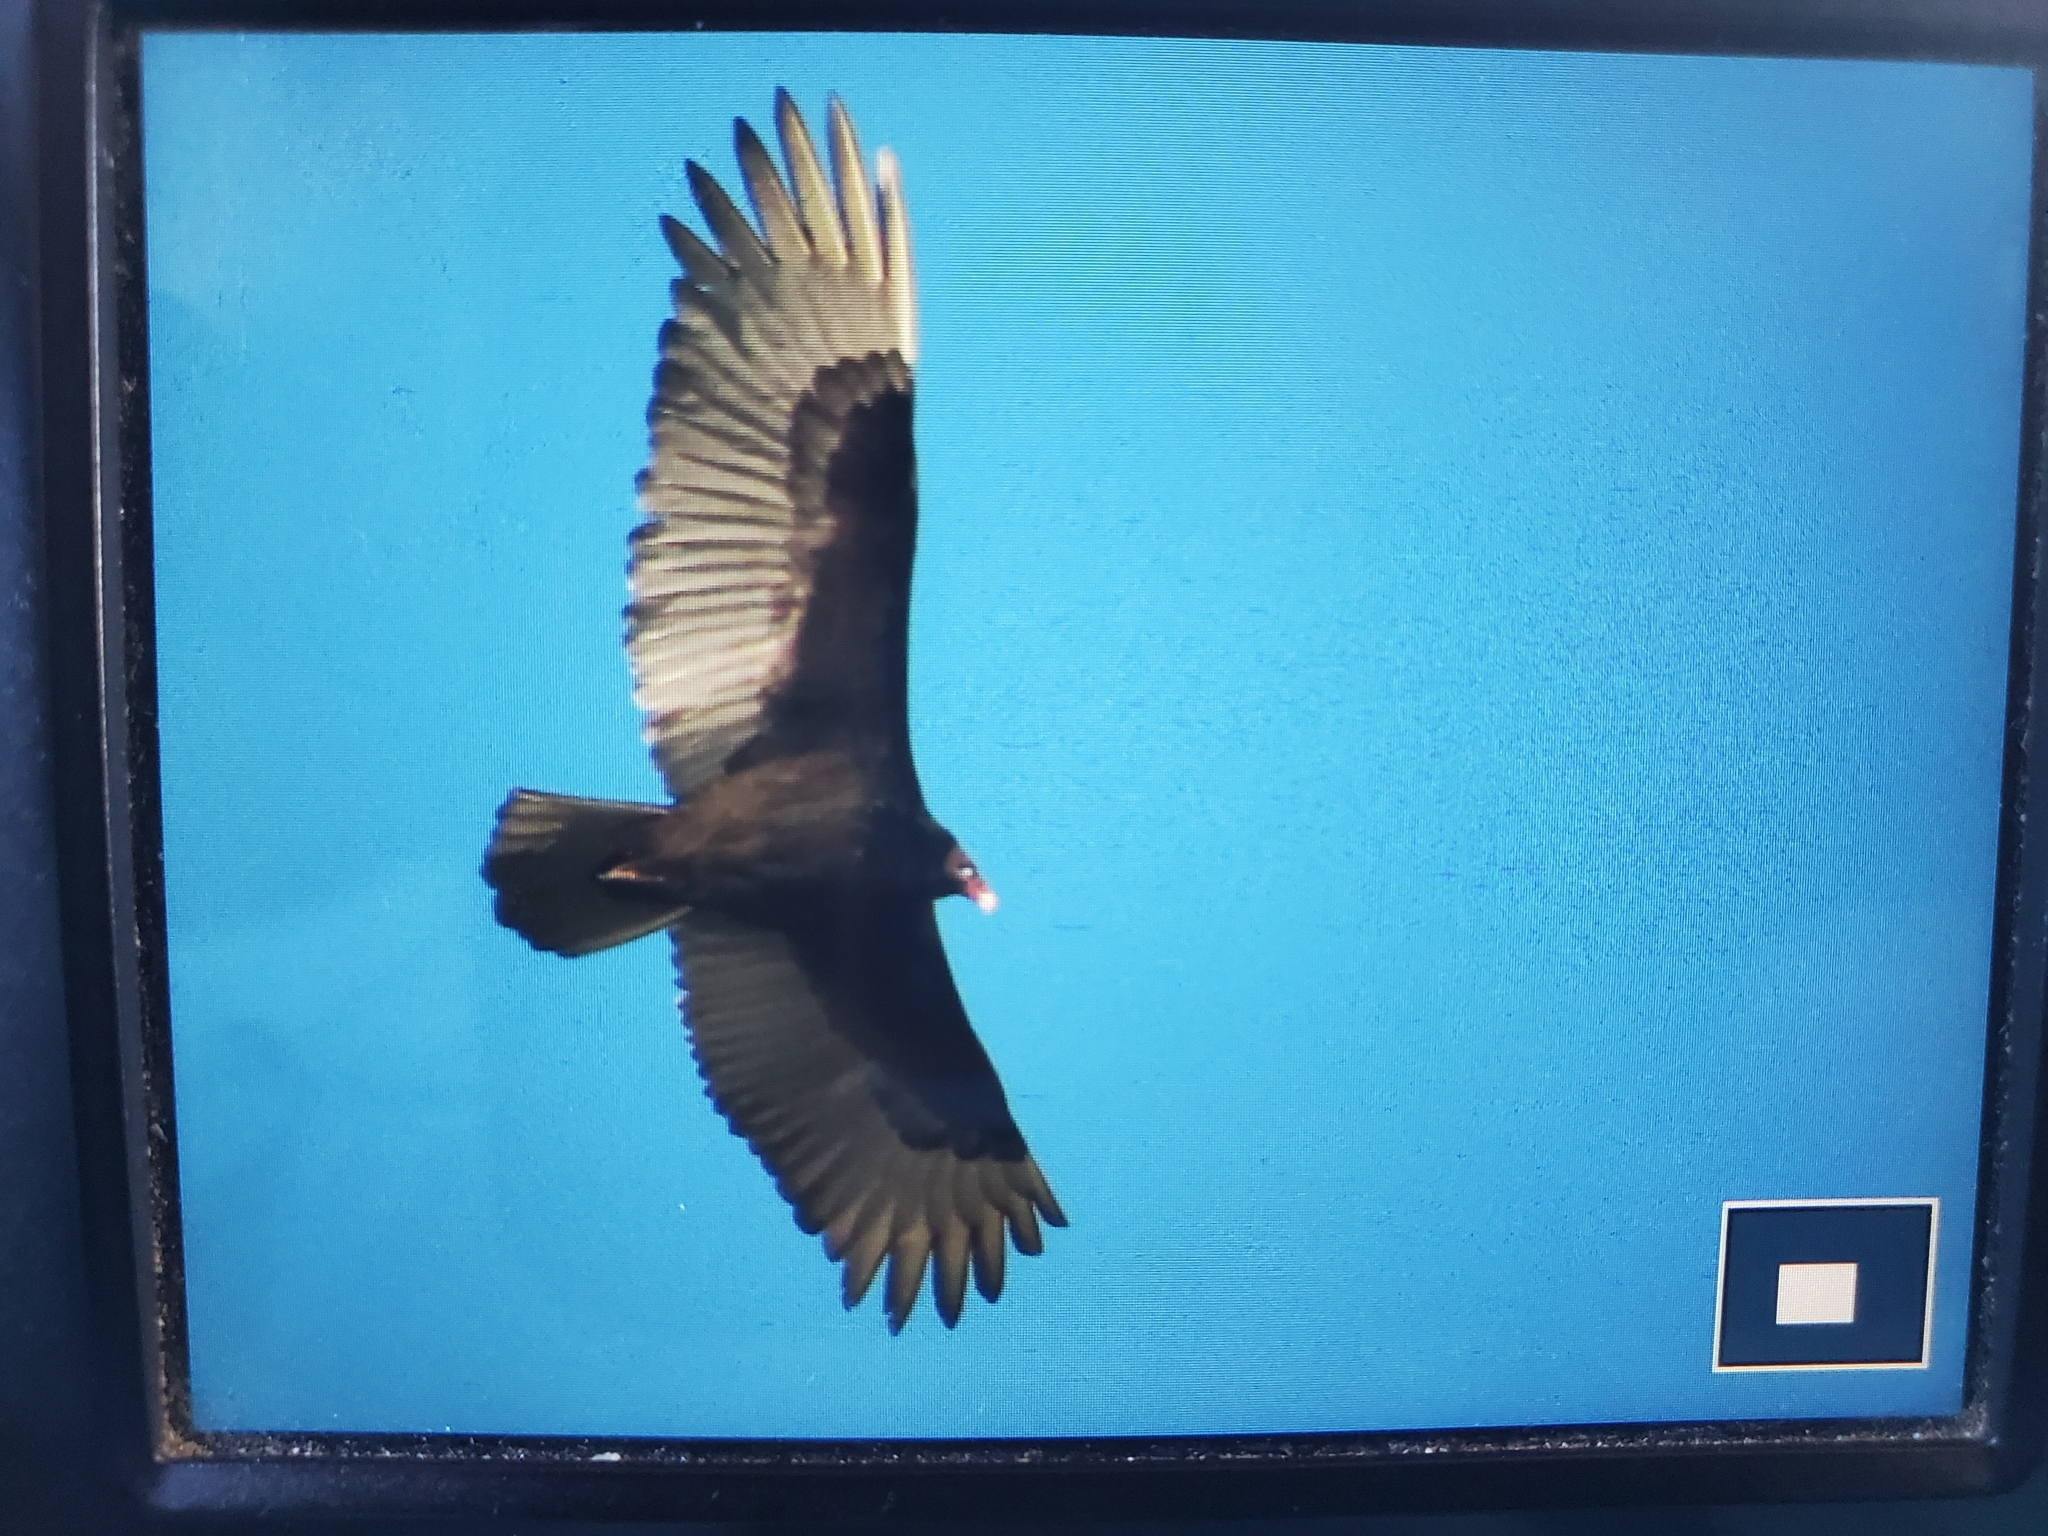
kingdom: Animalia
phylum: Chordata
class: Aves
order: Accipitriformes
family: Cathartidae
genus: Cathartes
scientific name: Cathartes aura
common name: Turkey vulture
